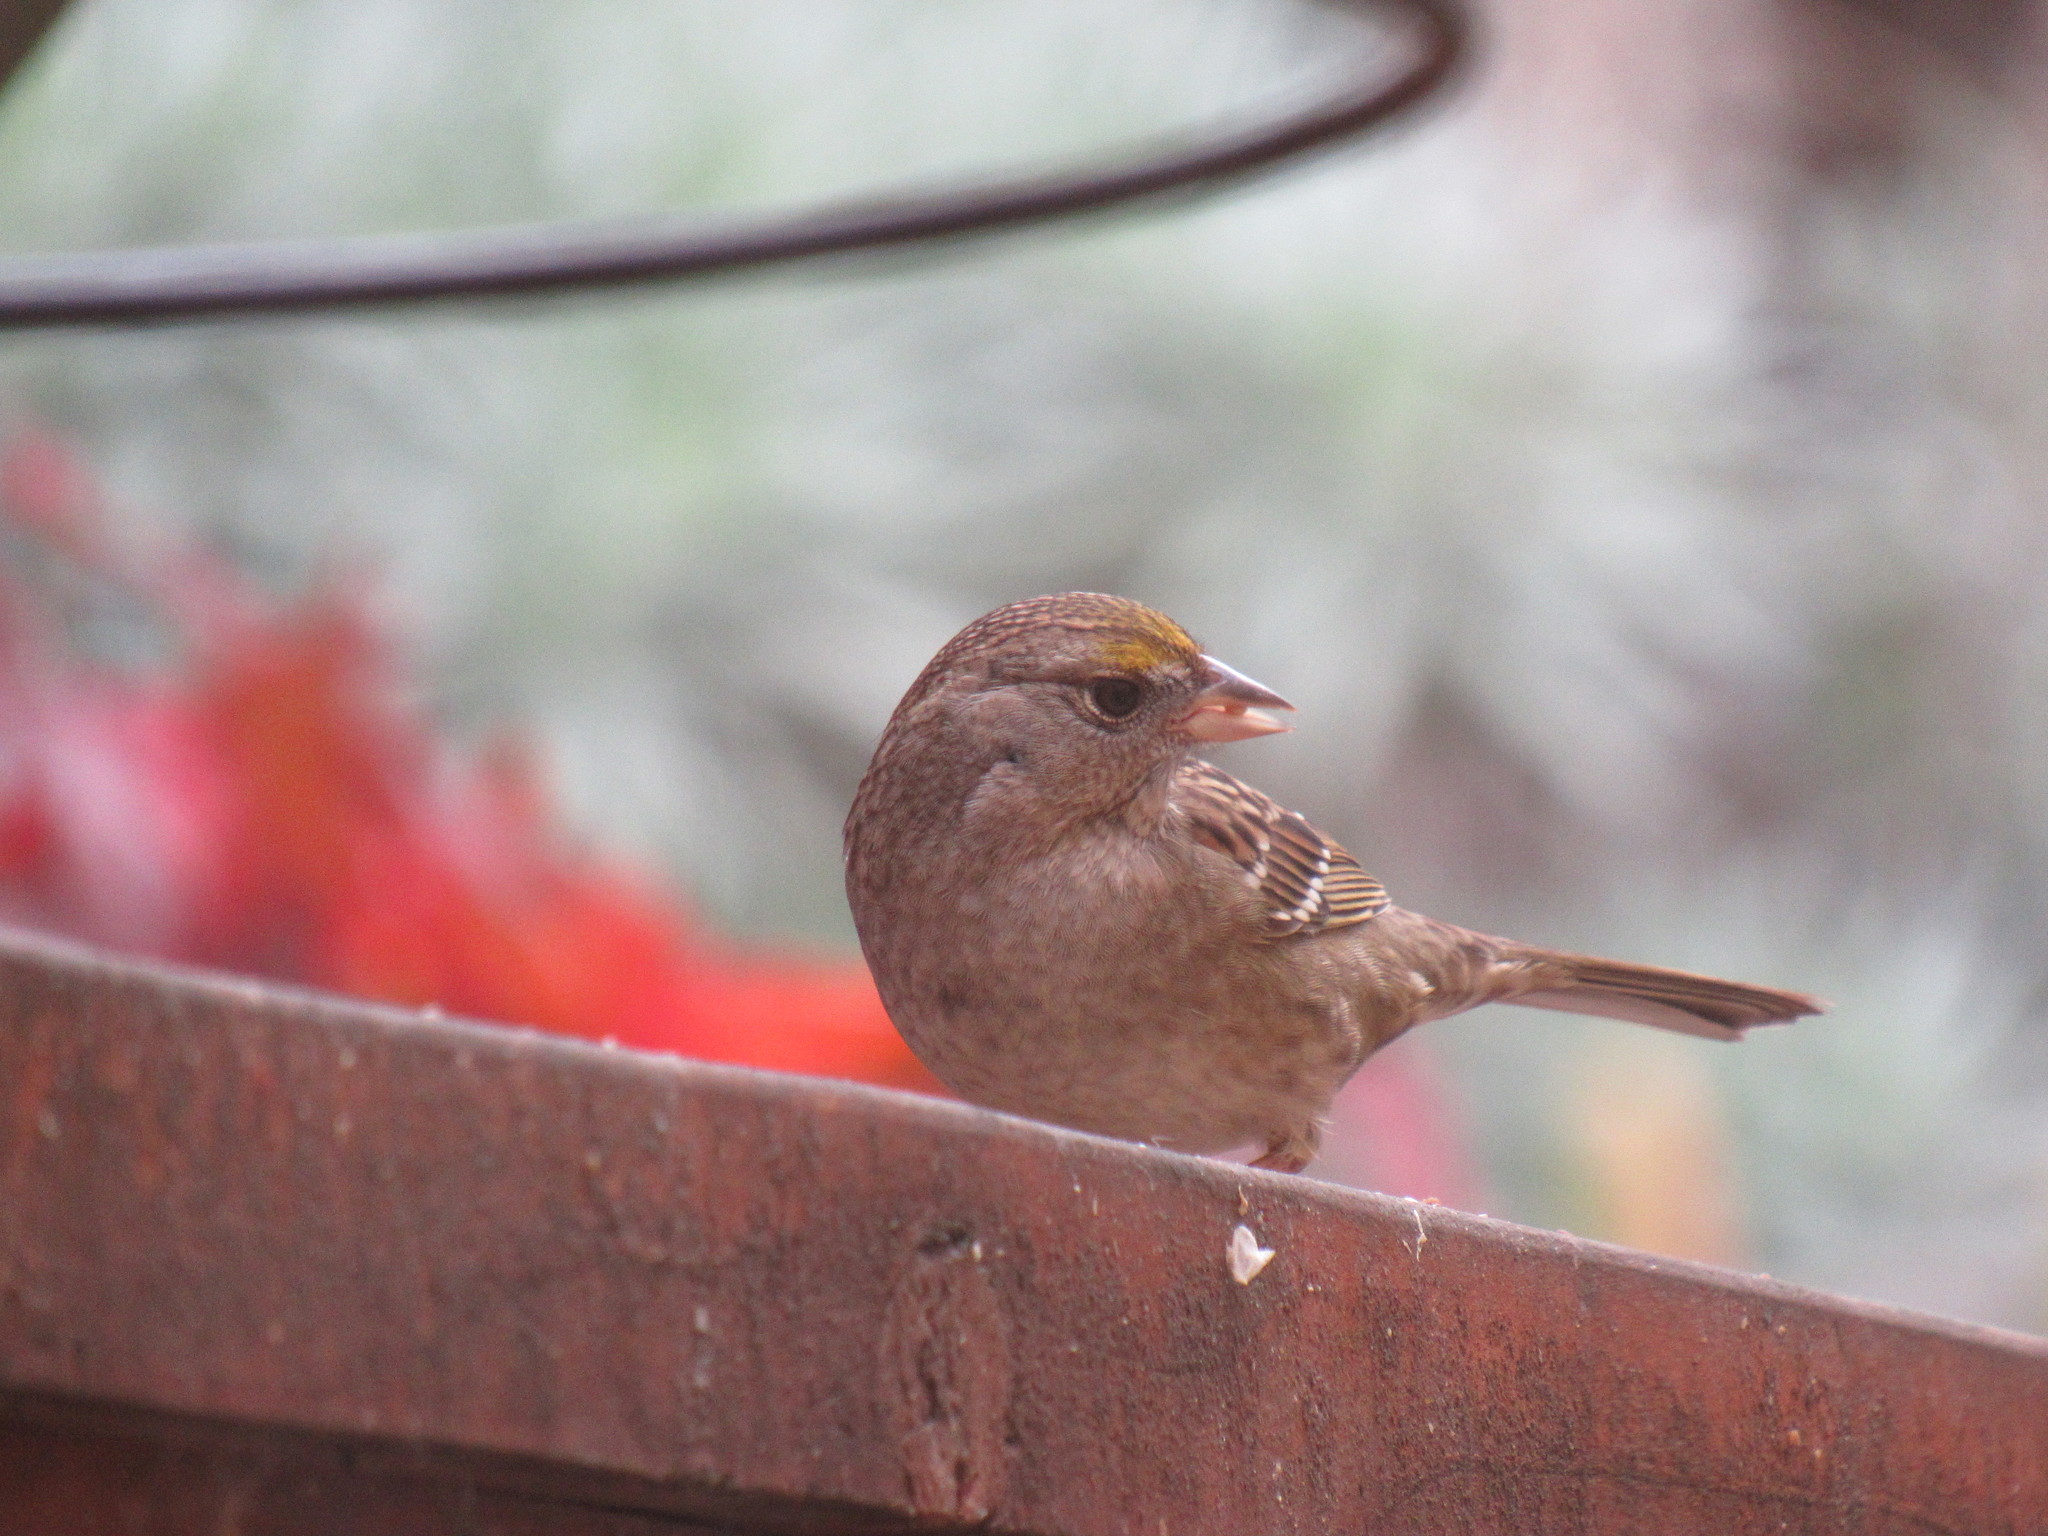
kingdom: Animalia
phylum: Chordata
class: Aves
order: Passeriformes
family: Passerellidae
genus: Zonotrichia
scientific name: Zonotrichia atricapilla
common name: Golden-crowned sparrow
